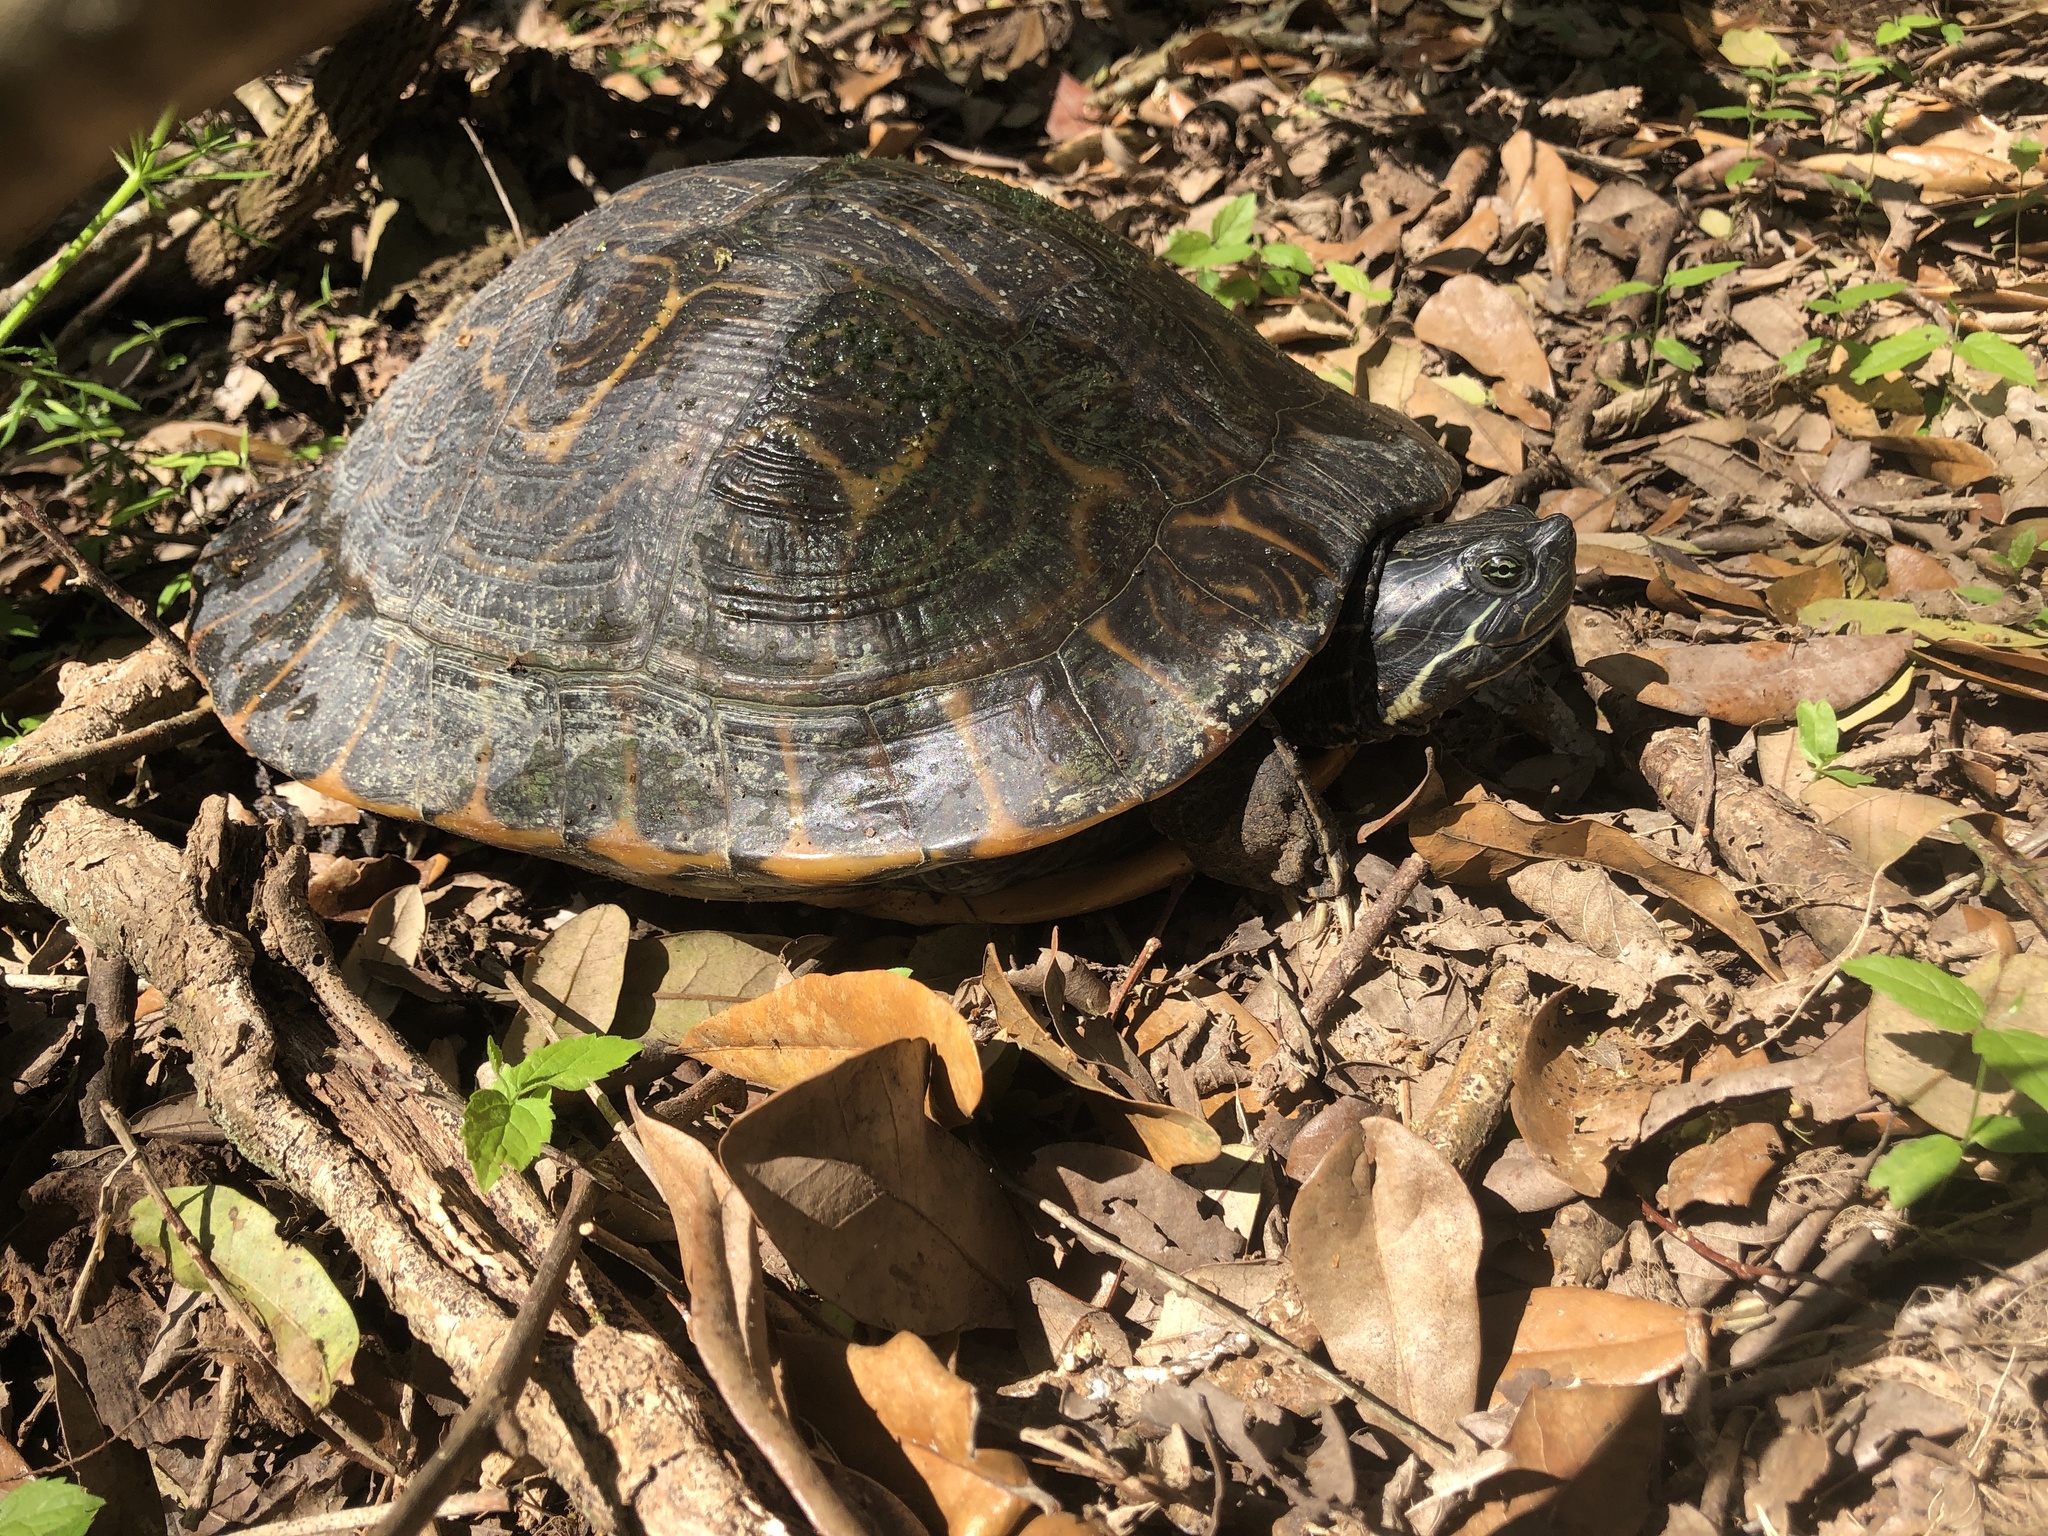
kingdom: Animalia
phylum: Chordata
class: Testudines
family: Emydidae
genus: Pseudemys
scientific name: Pseudemys concinna
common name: Eastern river cooter
